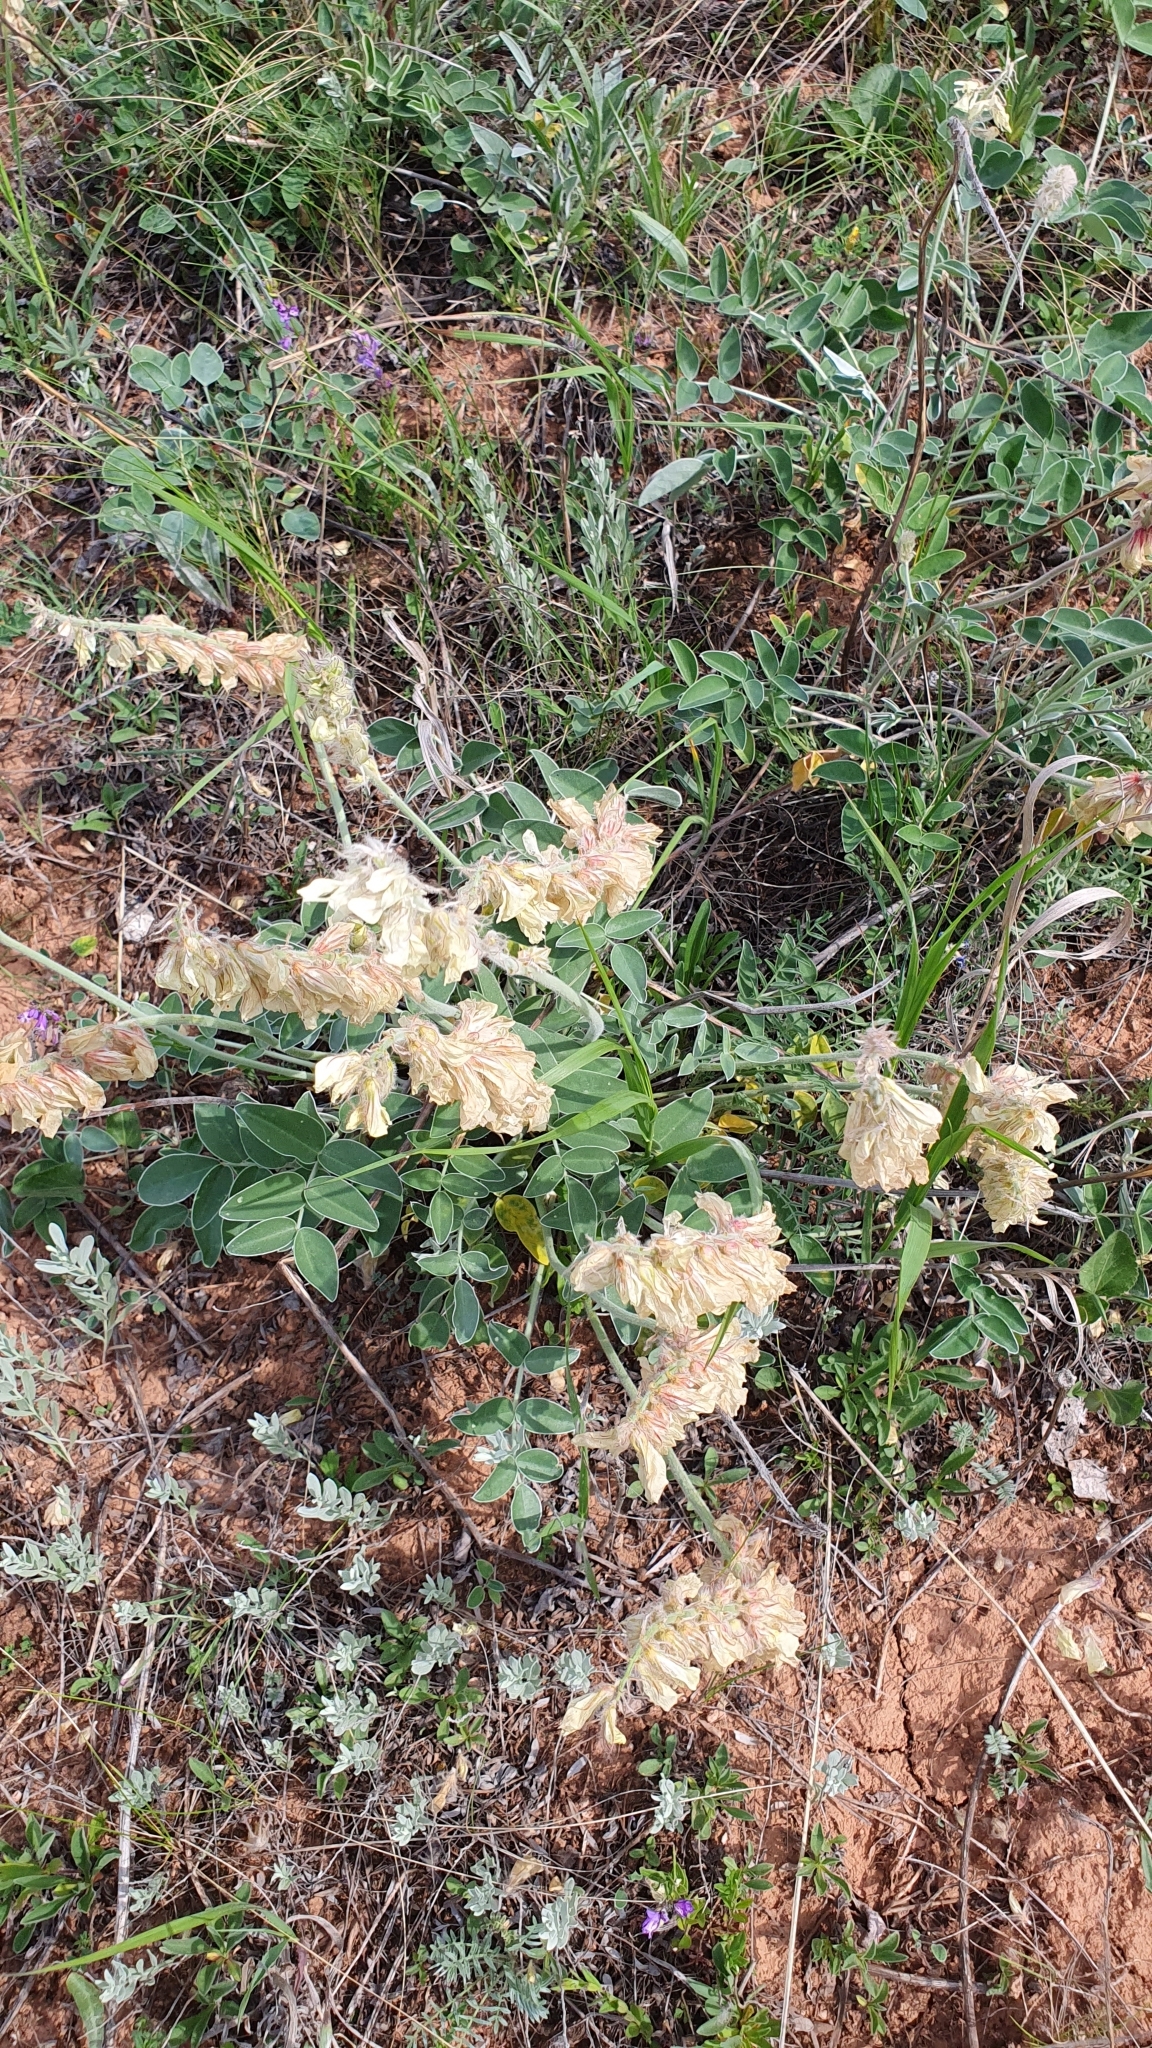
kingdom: Plantae
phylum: Tracheophyta
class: Magnoliopsida
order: Fabales
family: Fabaceae
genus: Hedysarum
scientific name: Hedysarum grandiflorum
